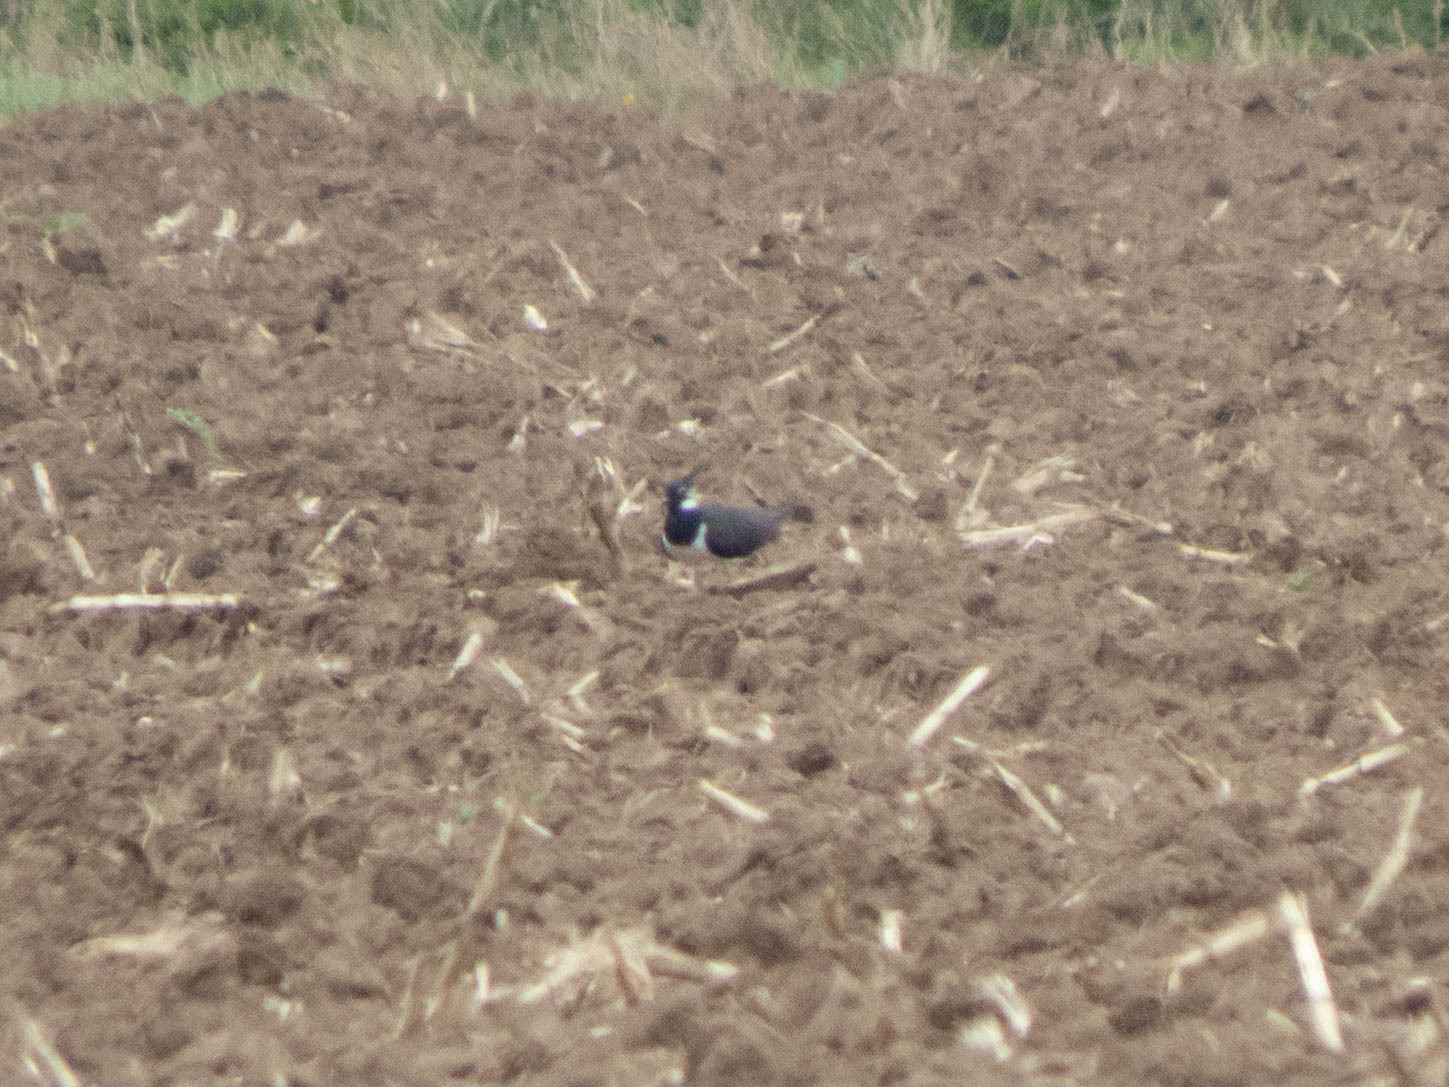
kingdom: Animalia
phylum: Chordata
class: Aves
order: Charadriiformes
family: Charadriidae
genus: Vanellus
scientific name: Vanellus vanellus
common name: Northern lapwing
